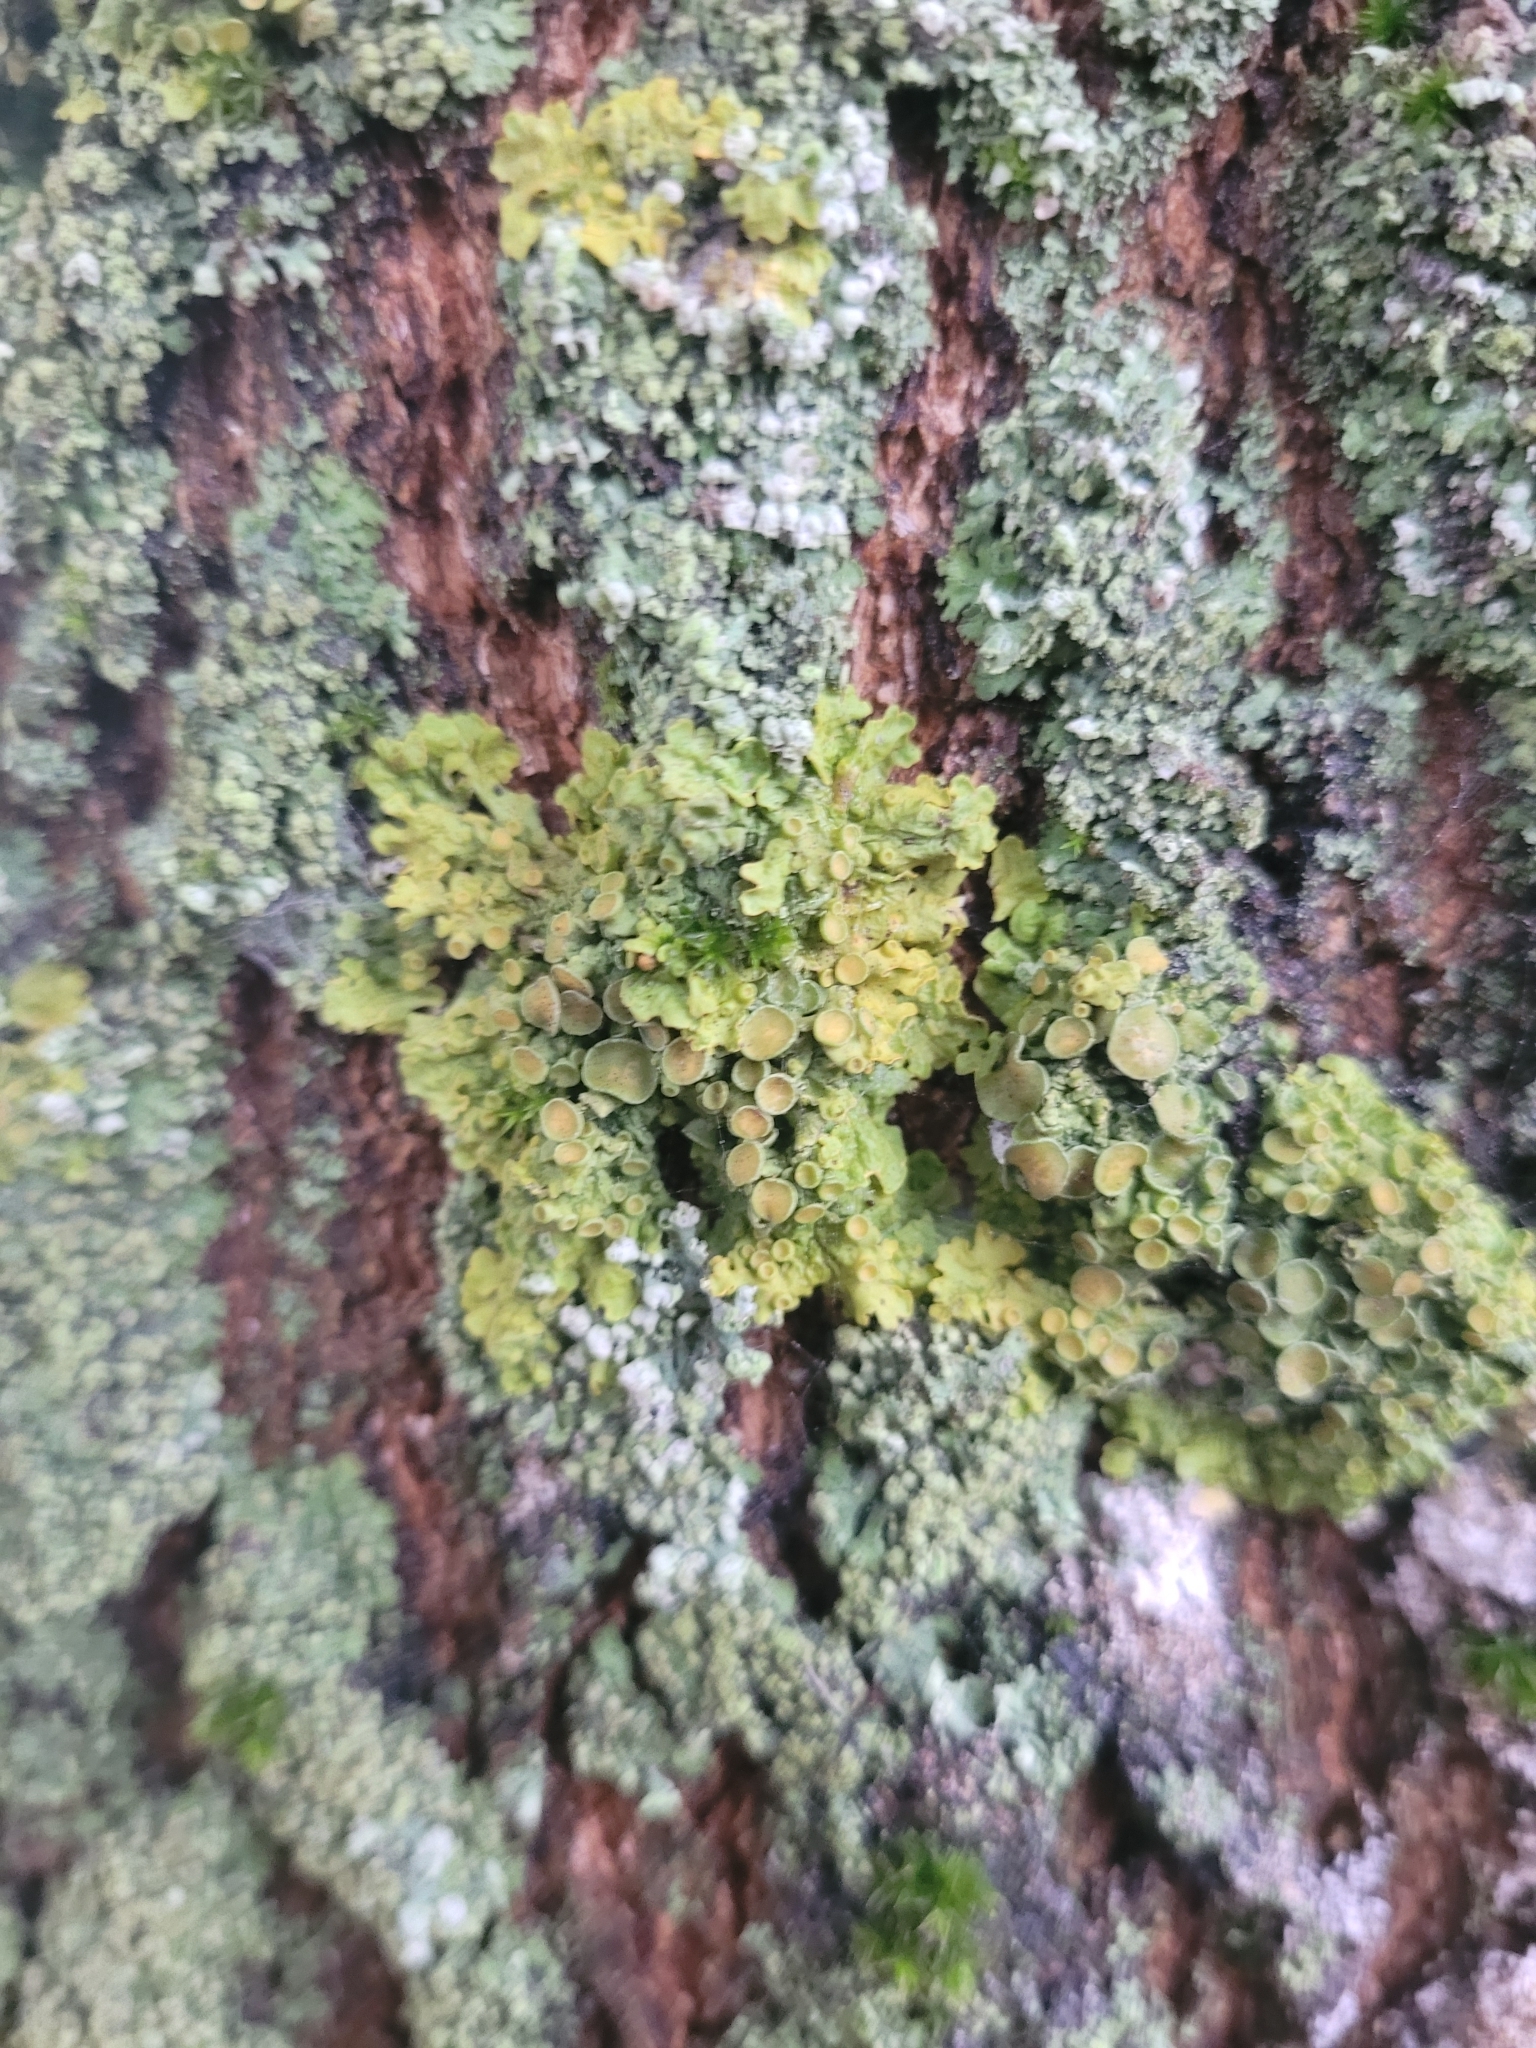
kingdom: Fungi
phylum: Ascomycota
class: Lecanoromycetes
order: Teloschistales
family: Teloschistaceae
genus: Xanthoria
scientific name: Xanthoria parietina
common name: Common orange lichen
